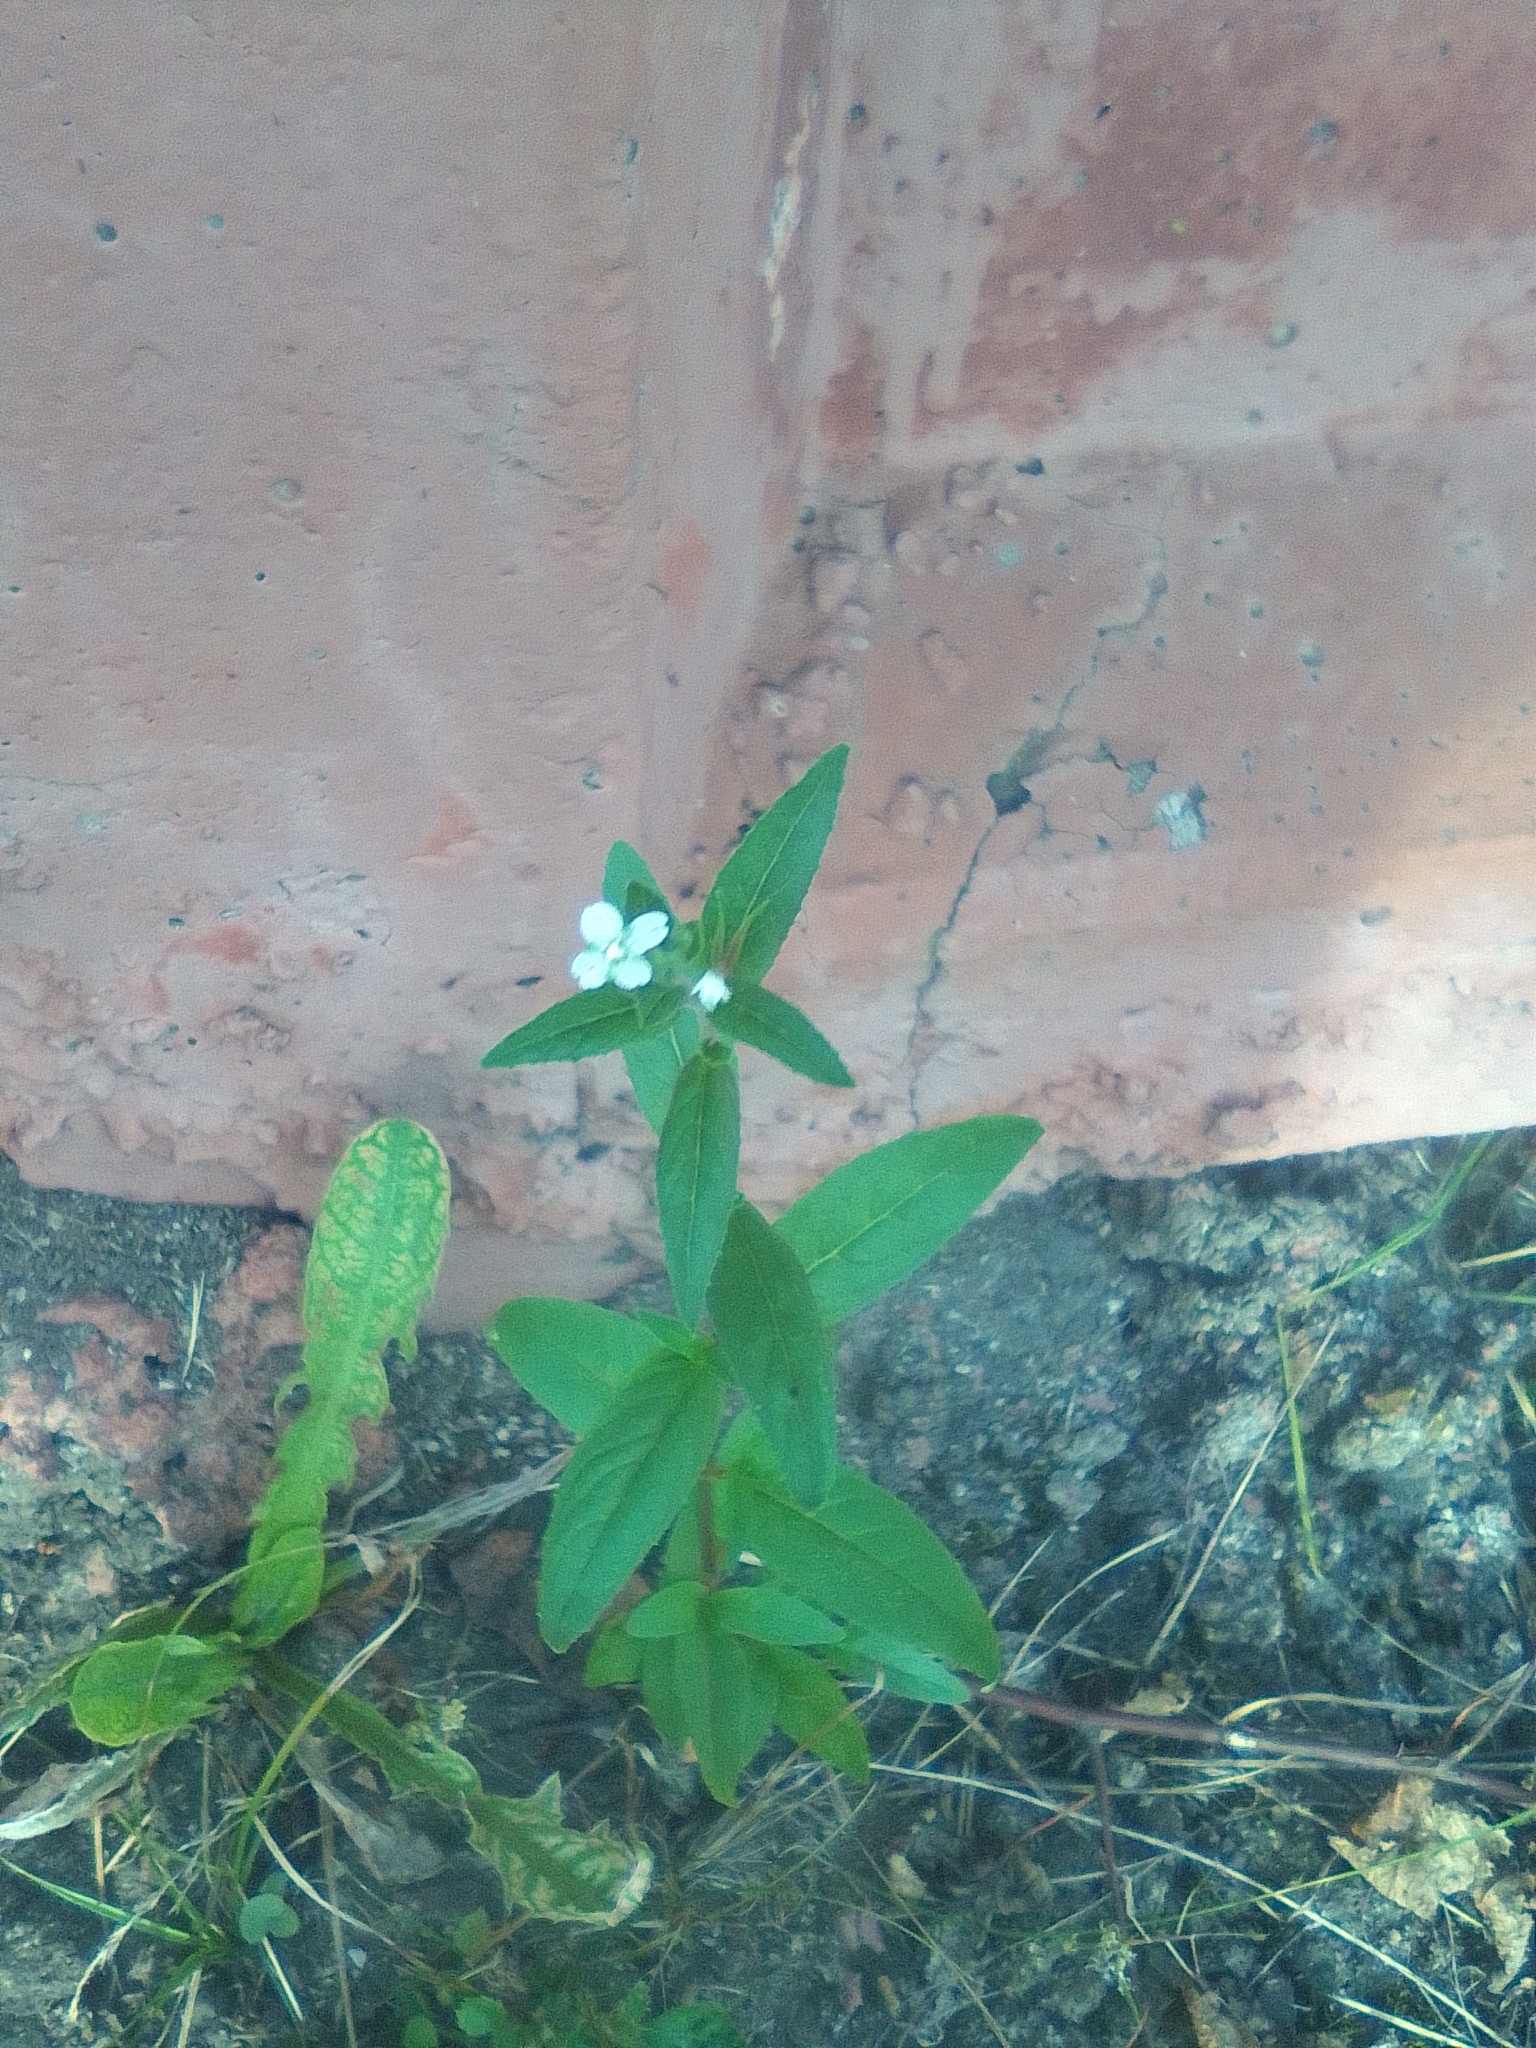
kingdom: Plantae
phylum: Tracheophyta
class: Magnoliopsida
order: Myrtales
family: Onagraceae
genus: Epilobium
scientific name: Epilobium pseudorubescens
